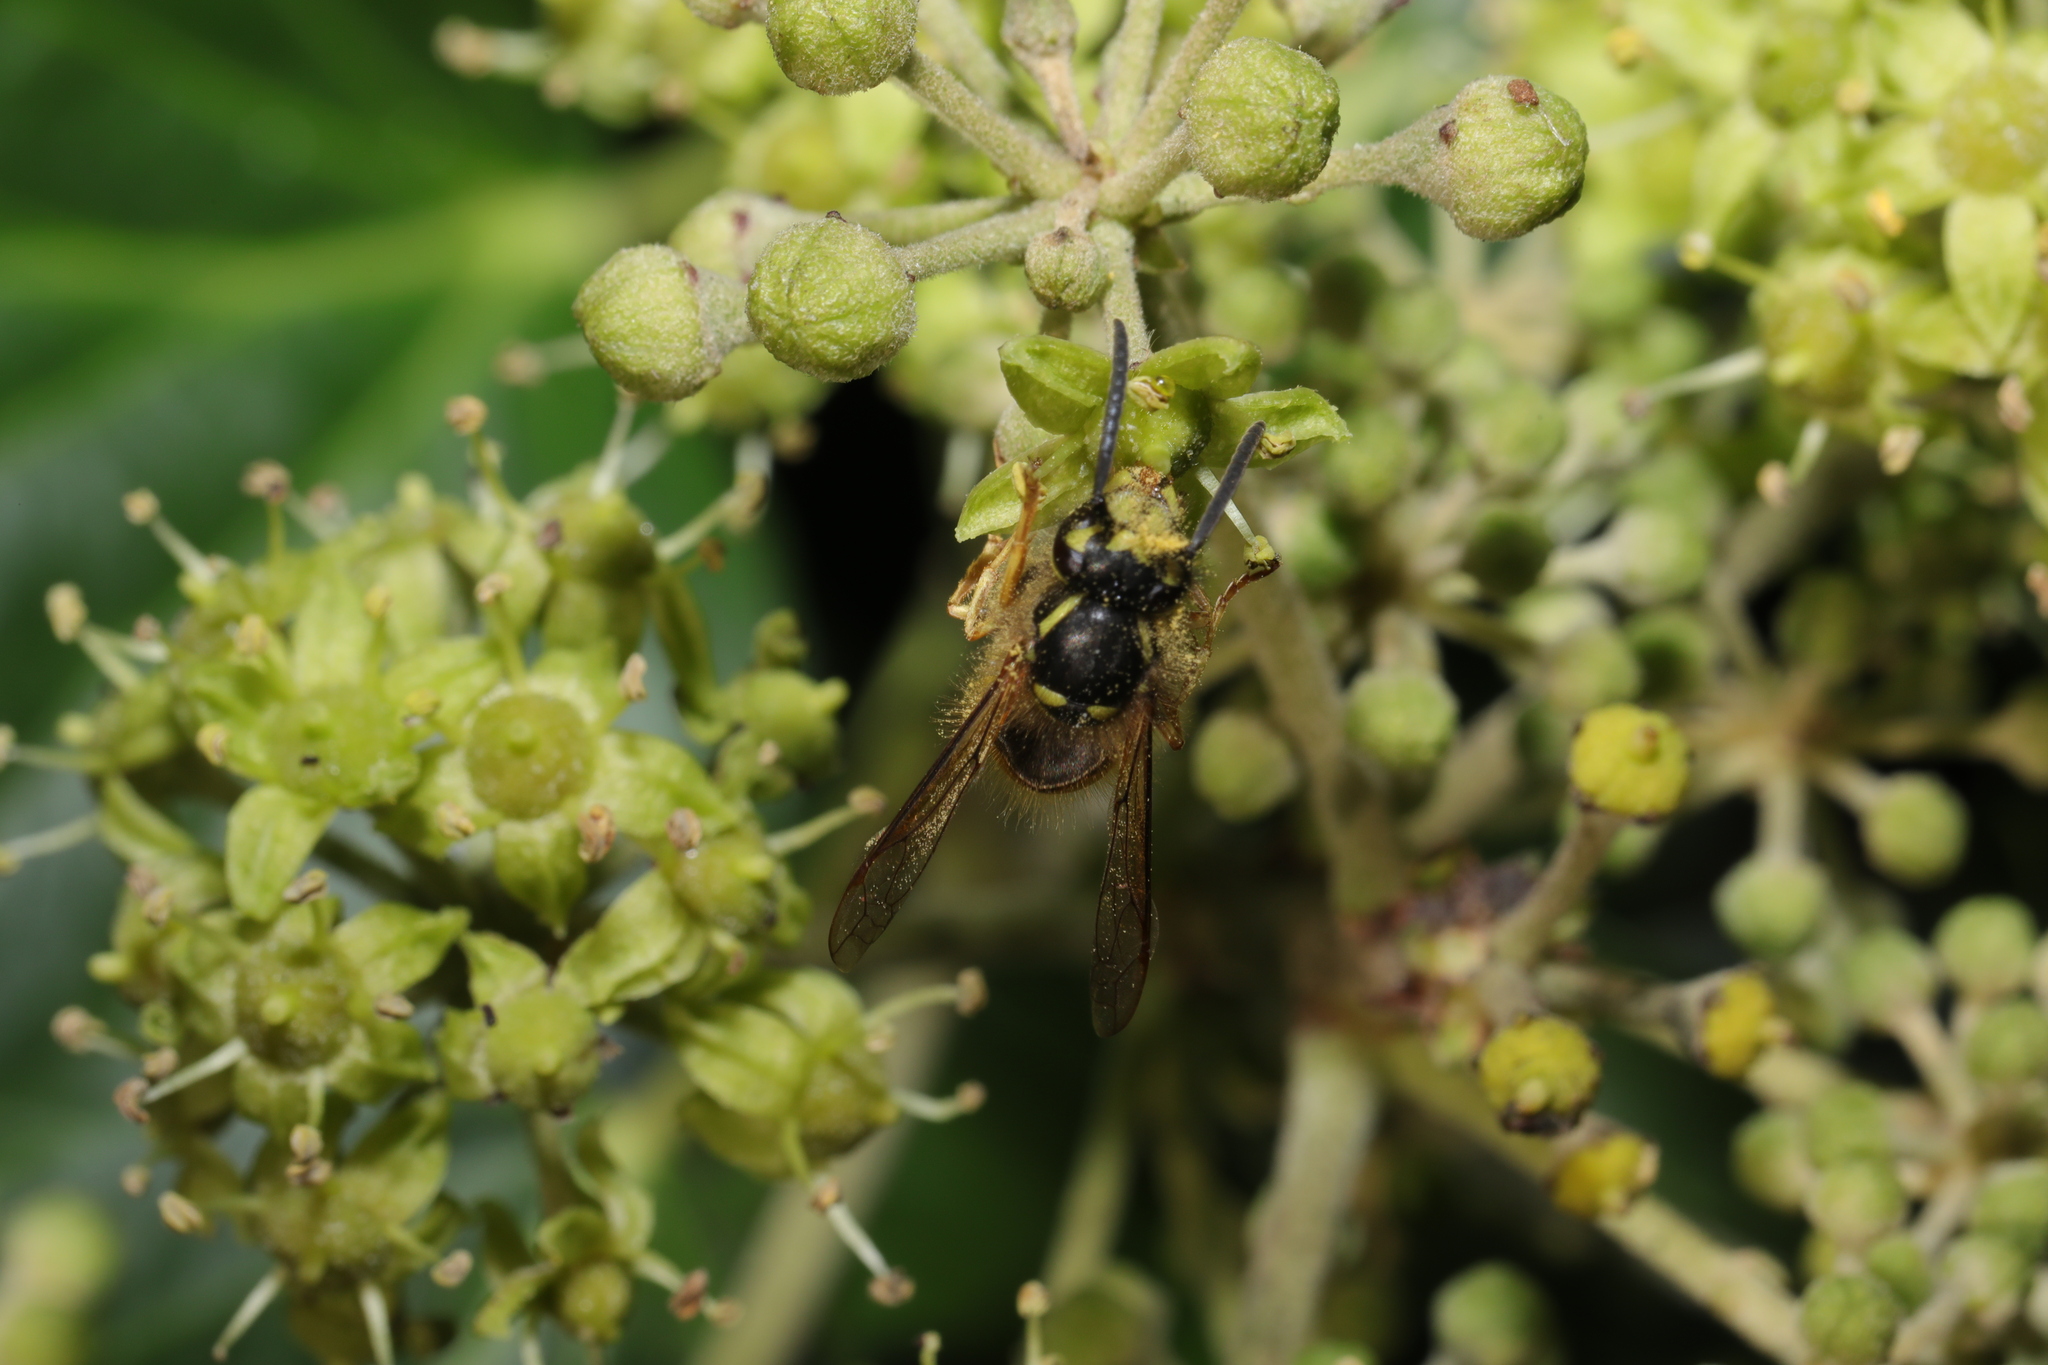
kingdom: Animalia
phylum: Arthropoda
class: Insecta
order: Hymenoptera
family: Vespidae
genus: Vespula
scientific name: Vespula vulgaris
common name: Common wasp
